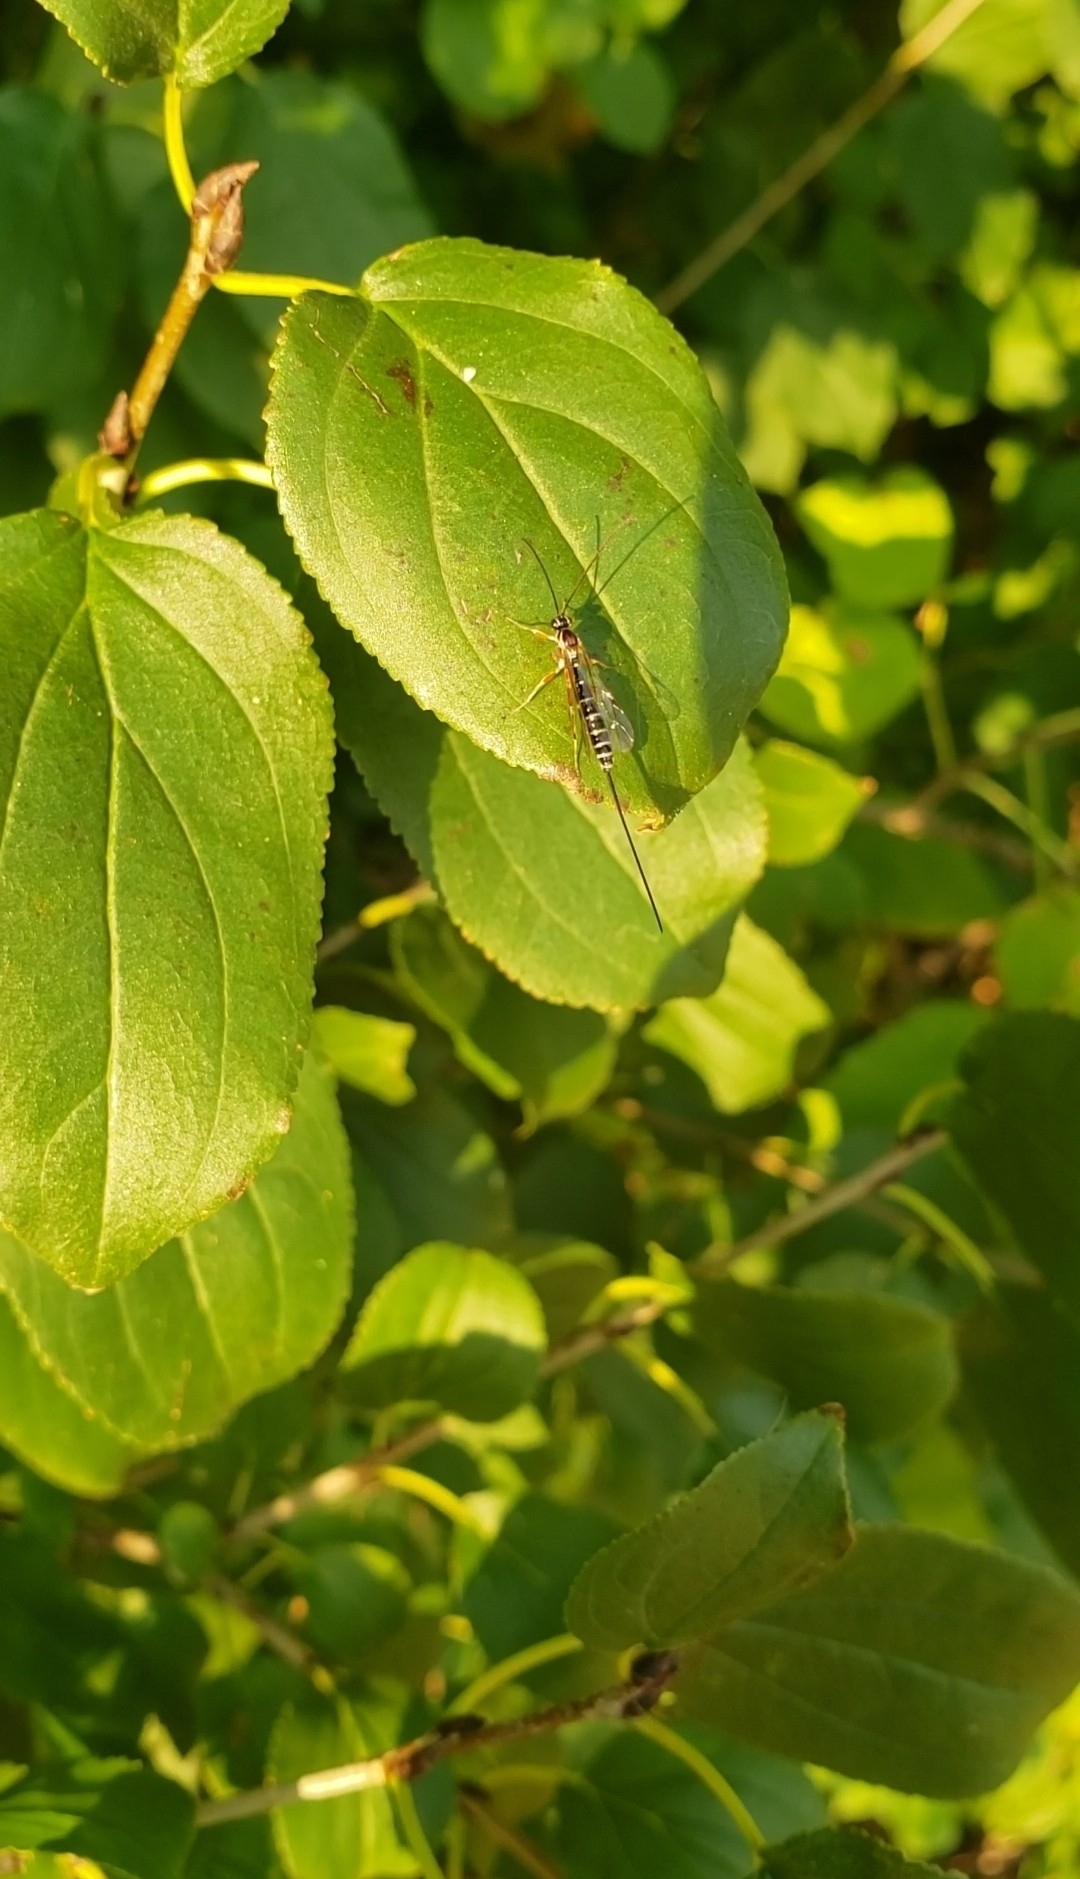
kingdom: Animalia
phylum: Arthropoda
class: Insecta
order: Hymenoptera
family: Ichneumonidae
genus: Perithous
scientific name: Perithous scurra
